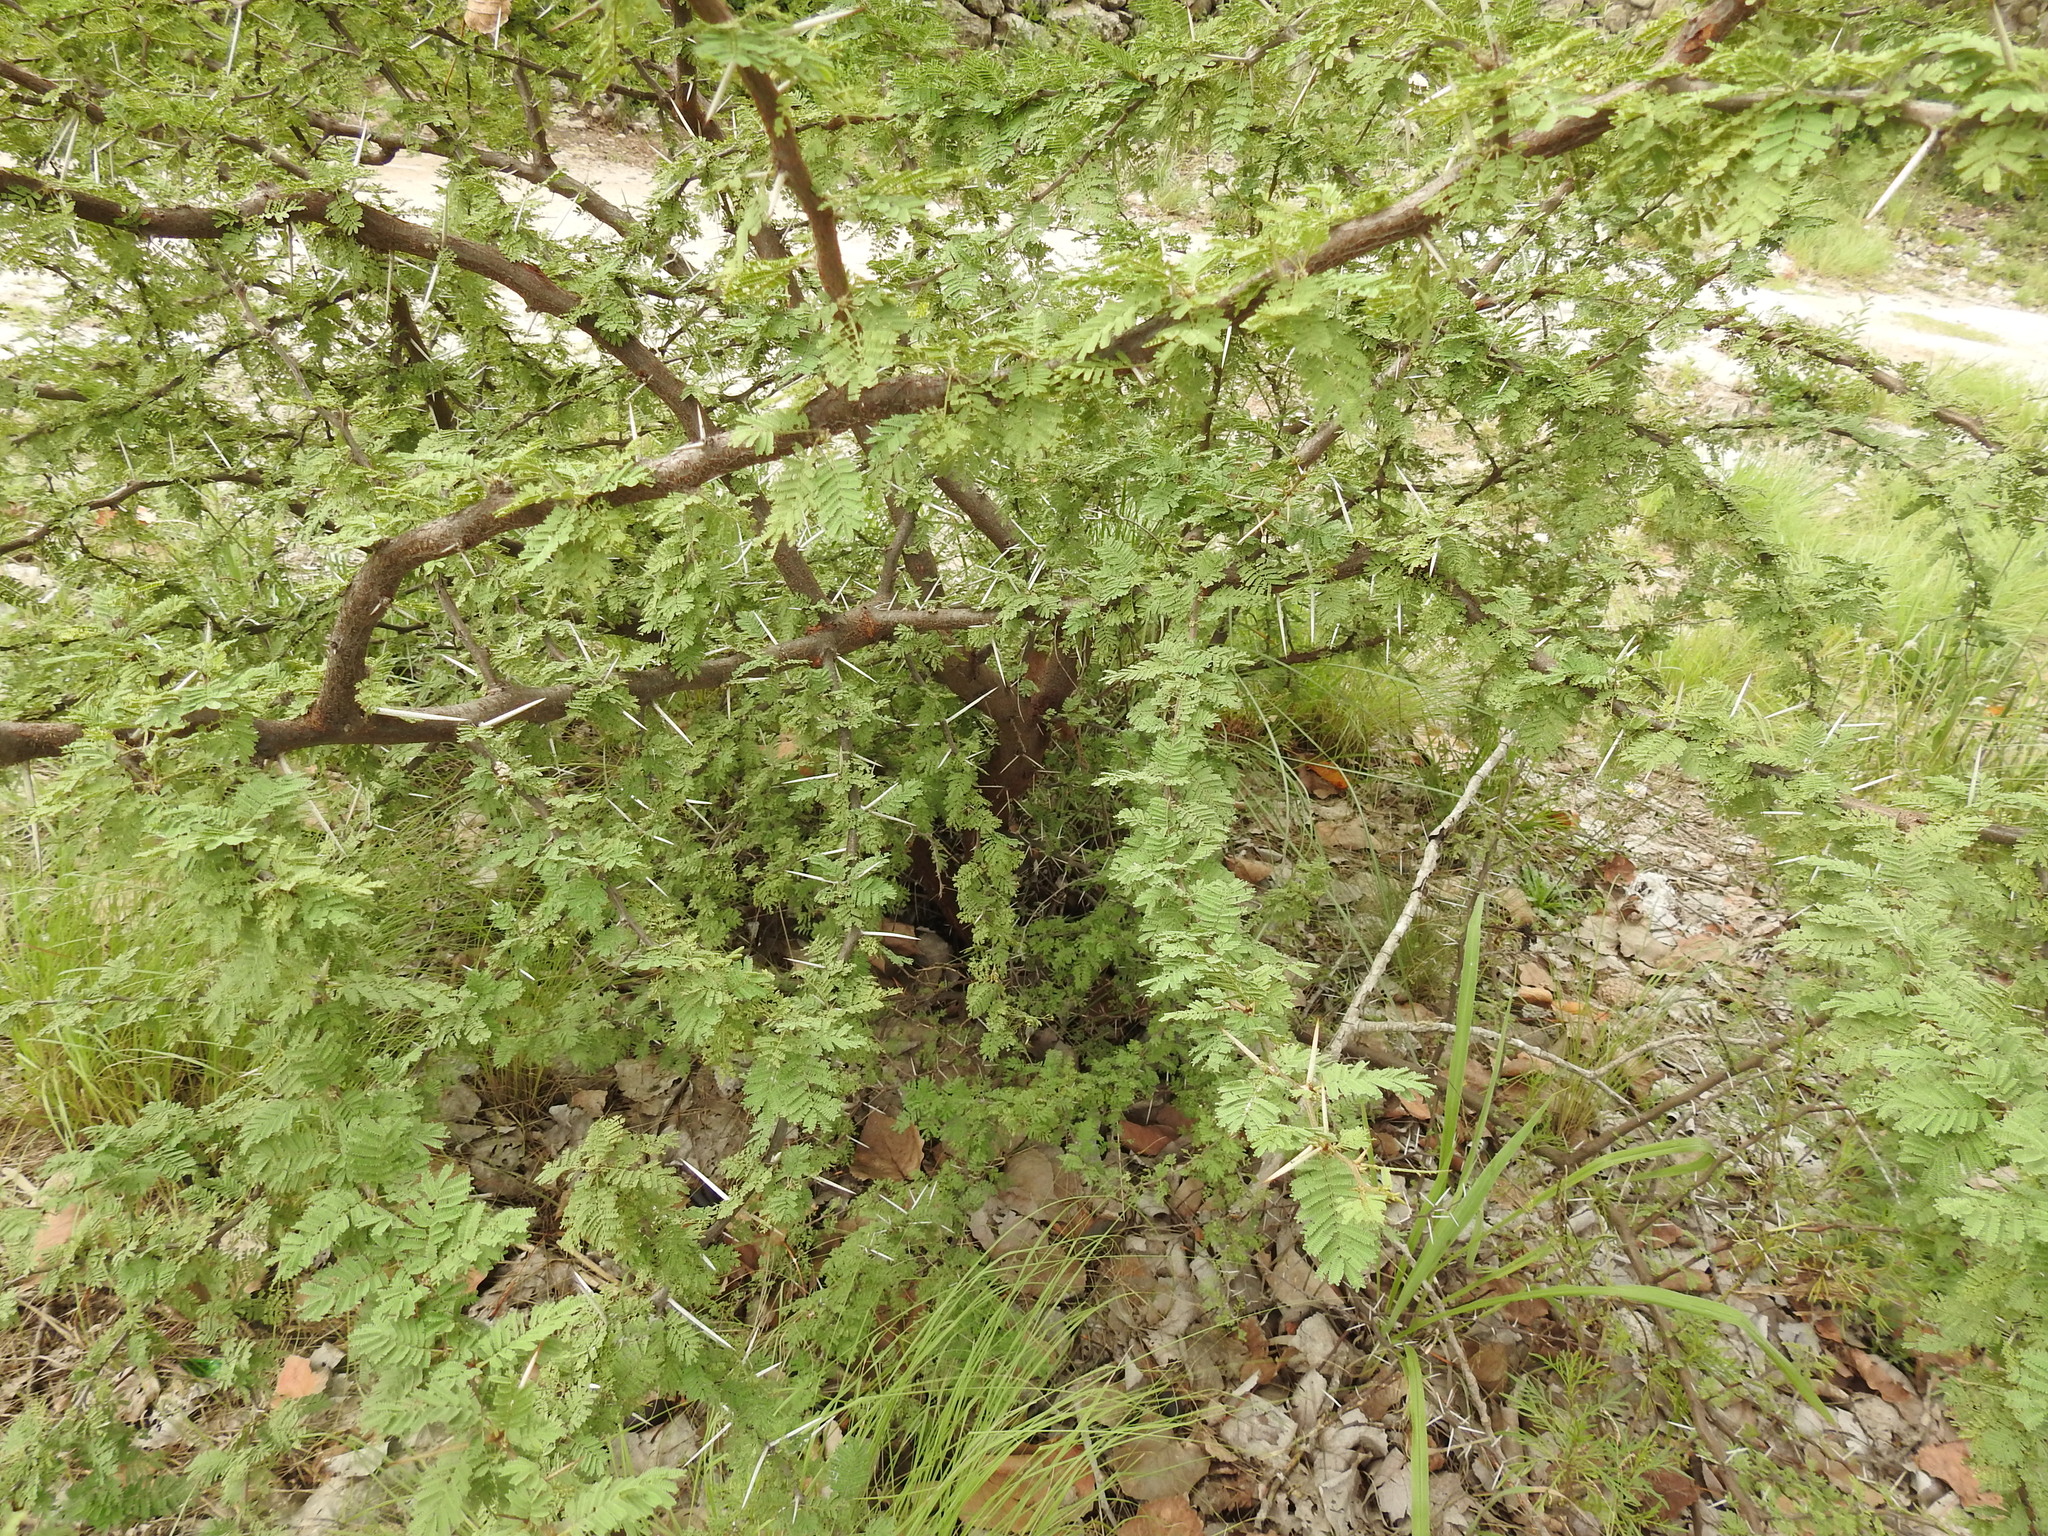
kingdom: Plantae
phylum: Tracheophyta
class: Magnoliopsida
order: Fabales
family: Fabaceae
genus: Vachellia
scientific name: Vachellia caven
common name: Roman cassie
